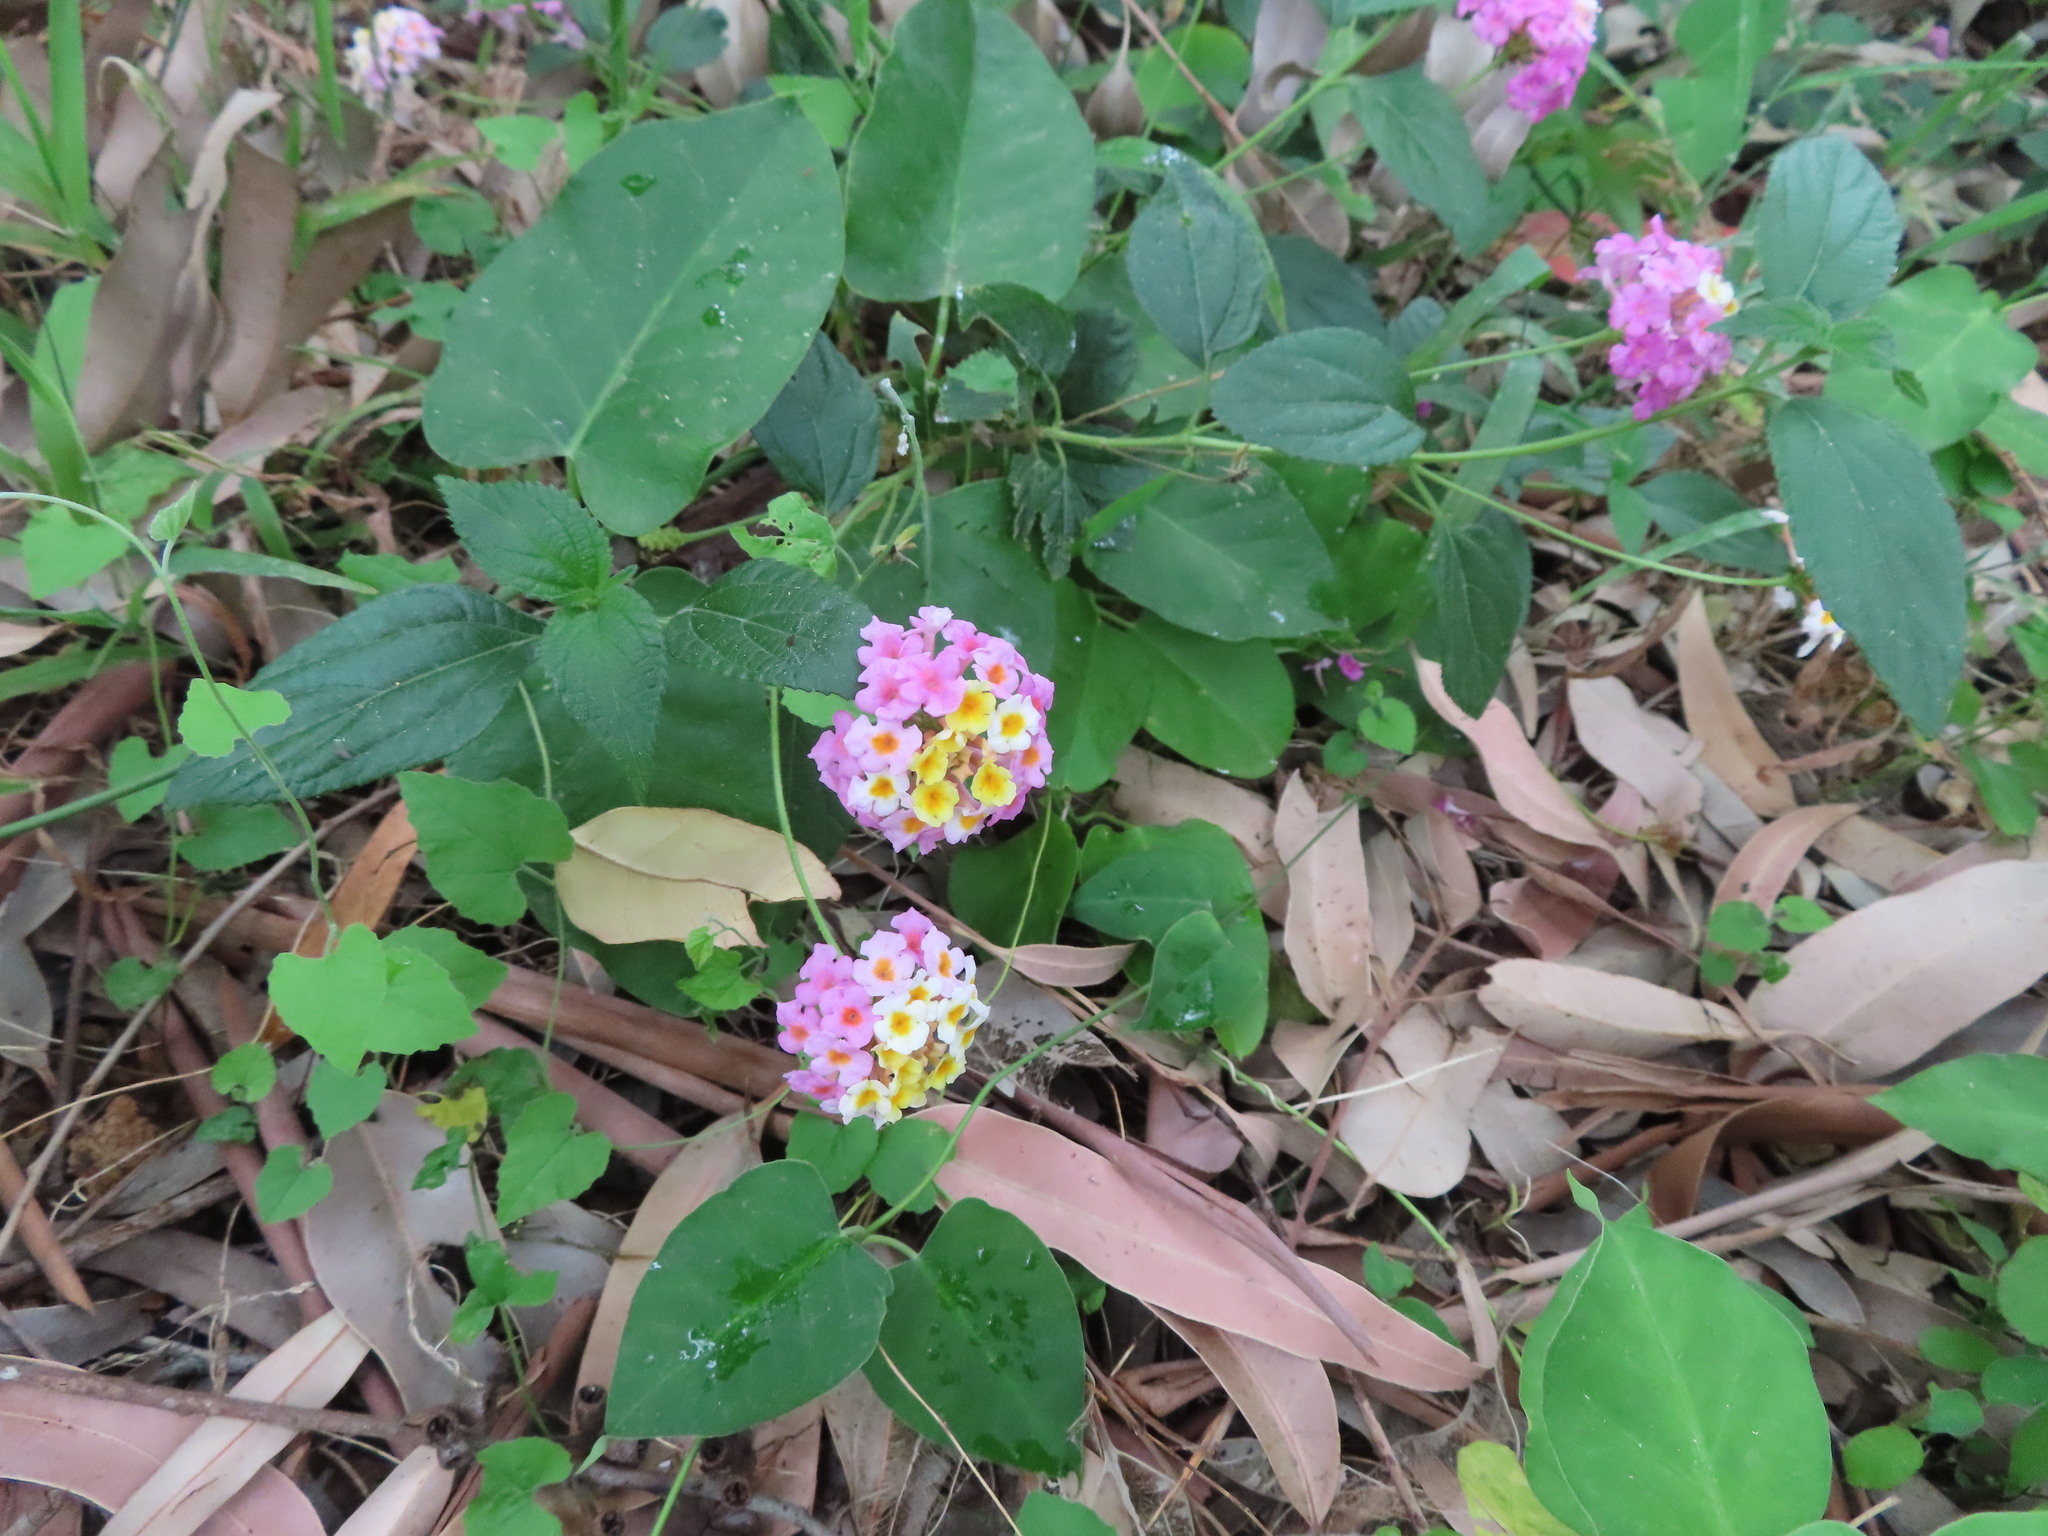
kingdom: Plantae
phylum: Tracheophyta
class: Magnoliopsida
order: Lamiales
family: Verbenaceae
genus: Lantana
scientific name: Lantana camara
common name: Lantana
